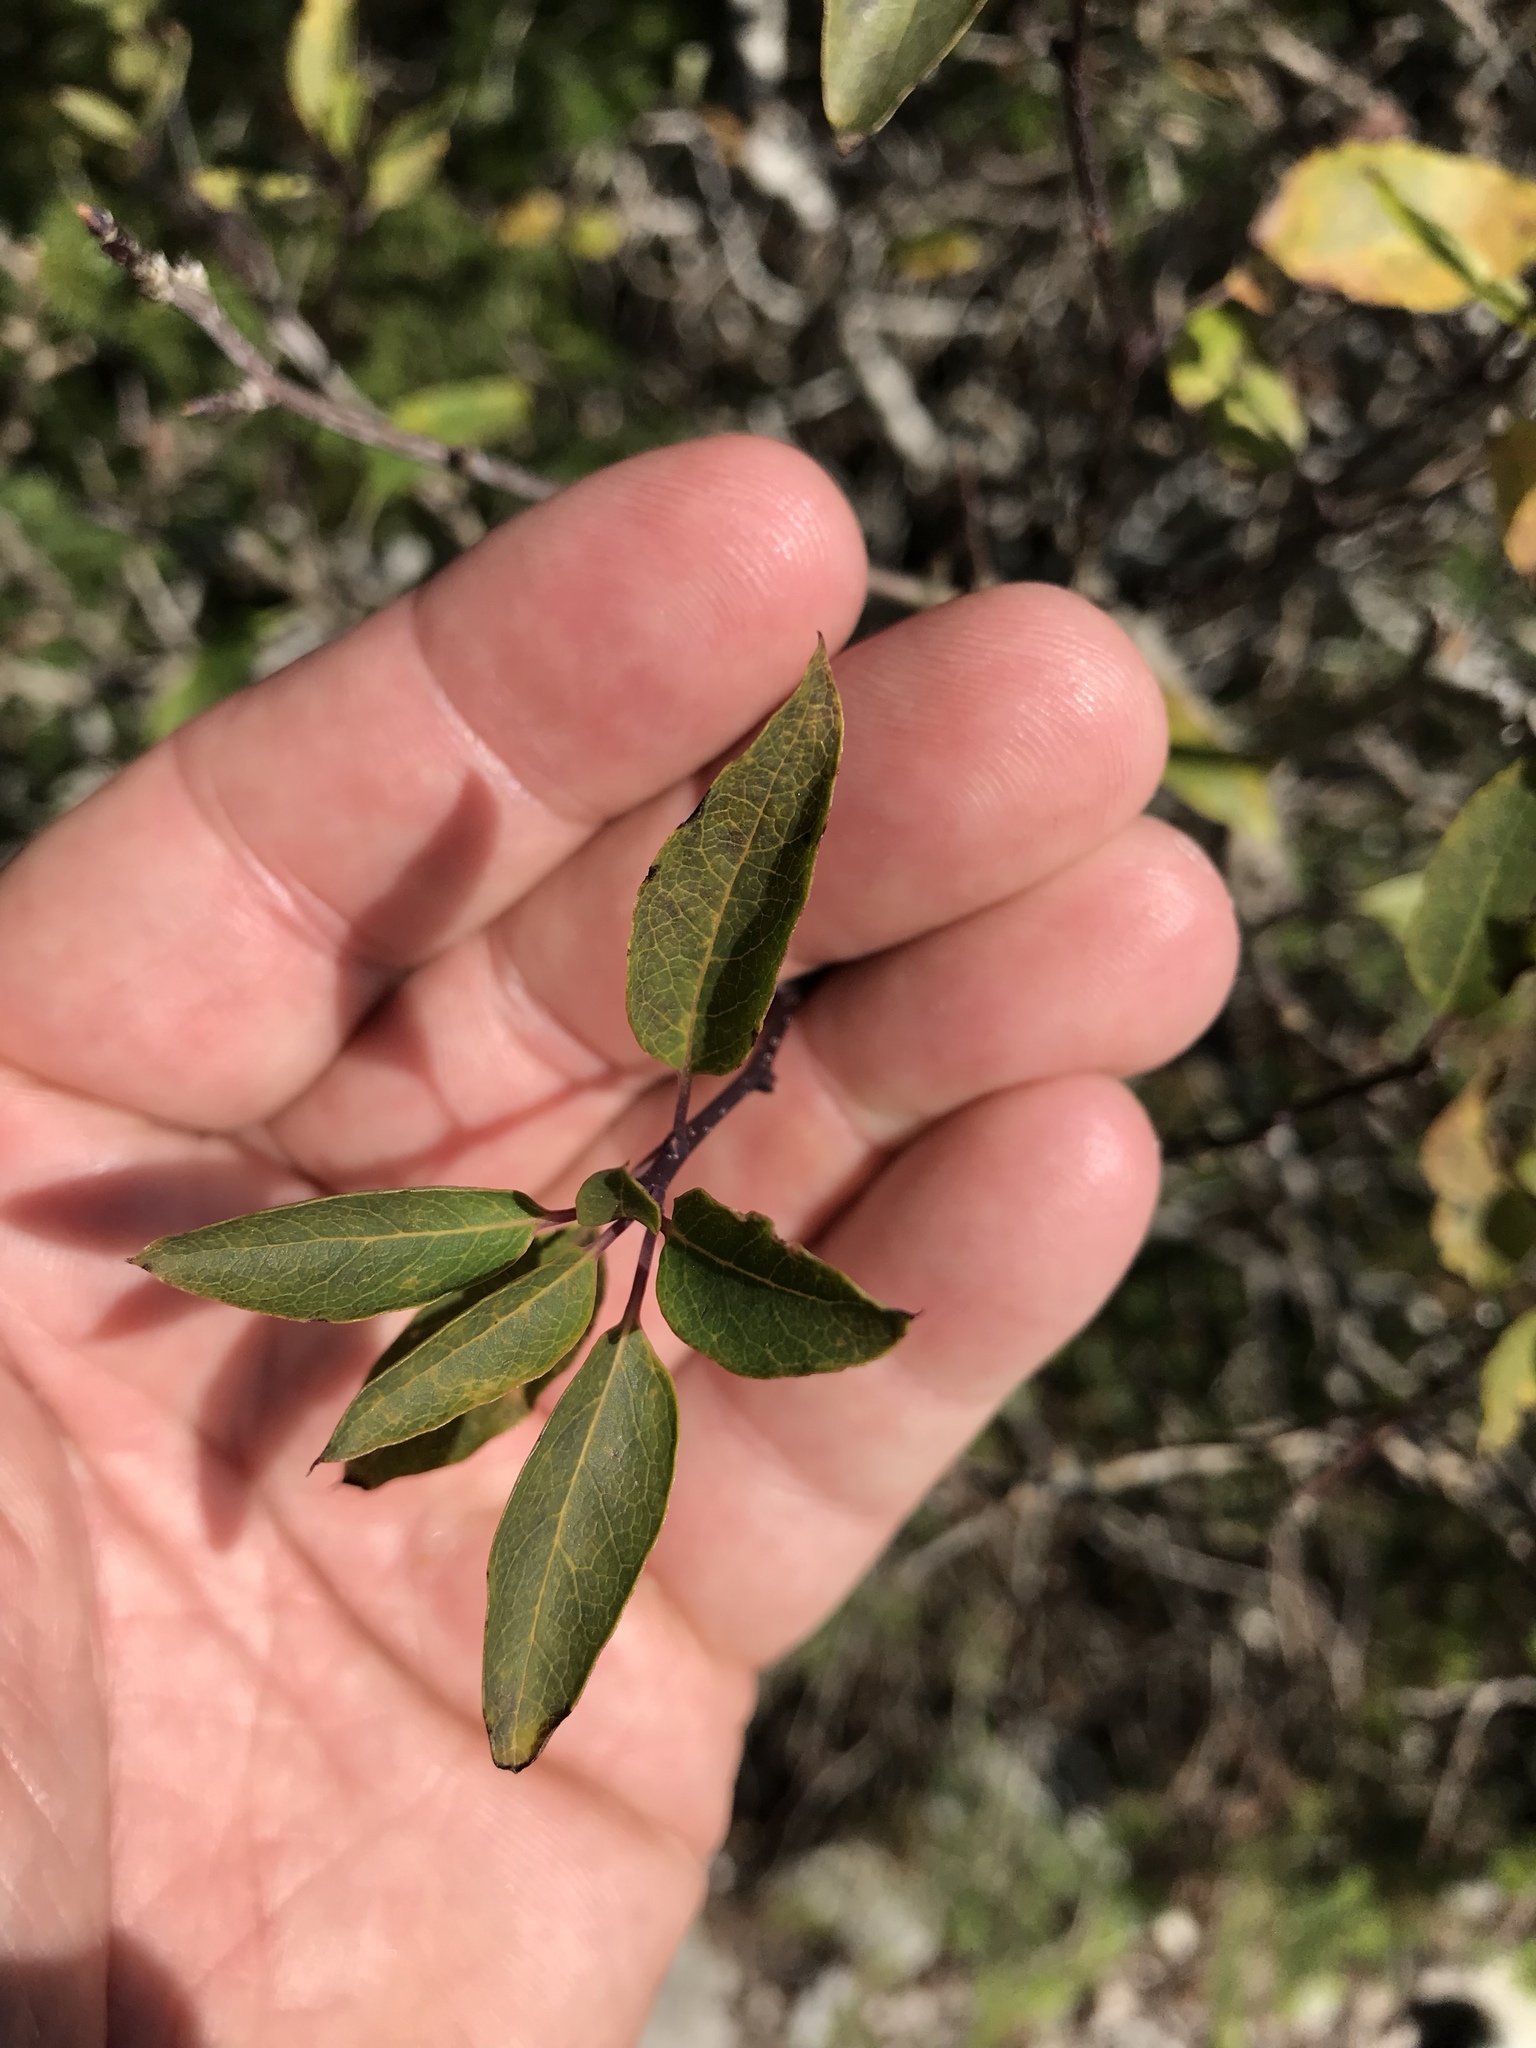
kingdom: Plantae
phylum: Tracheophyta
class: Magnoliopsida
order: Aquifoliales
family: Aquifoliaceae
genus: Ilex
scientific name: Ilex mucronata
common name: Catberry
